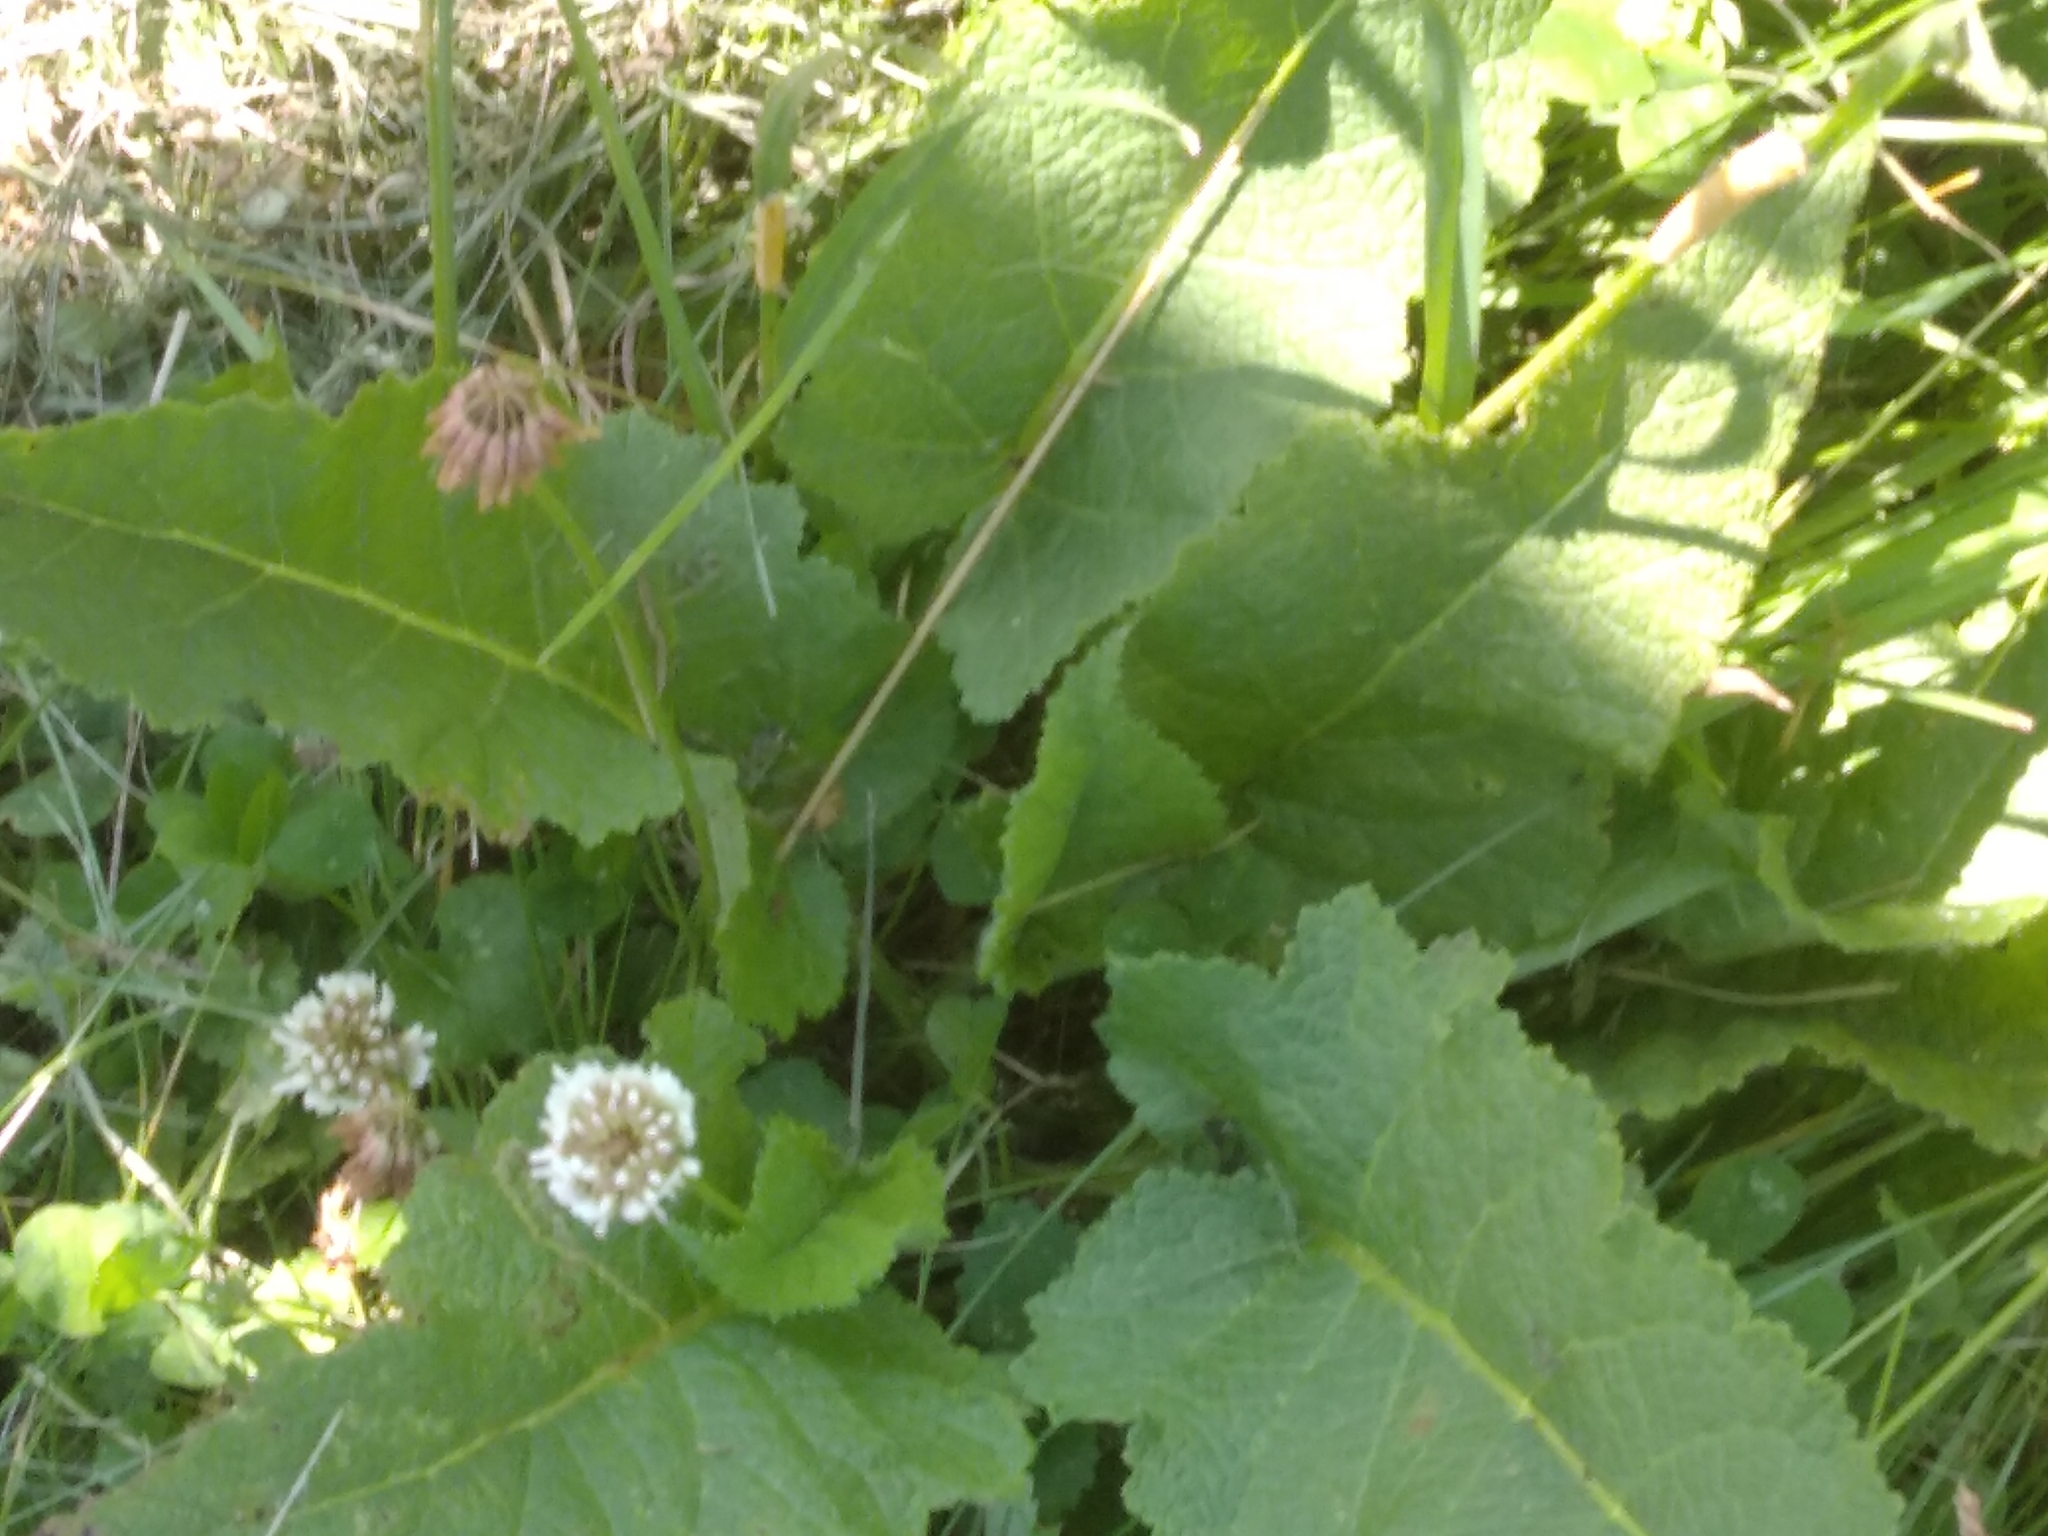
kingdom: Plantae
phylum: Tracheophyta
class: Magnoliopsida
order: Lamiales
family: Lamiaceae
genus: Salvia
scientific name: Salvia verticillata
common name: Whorled clary
